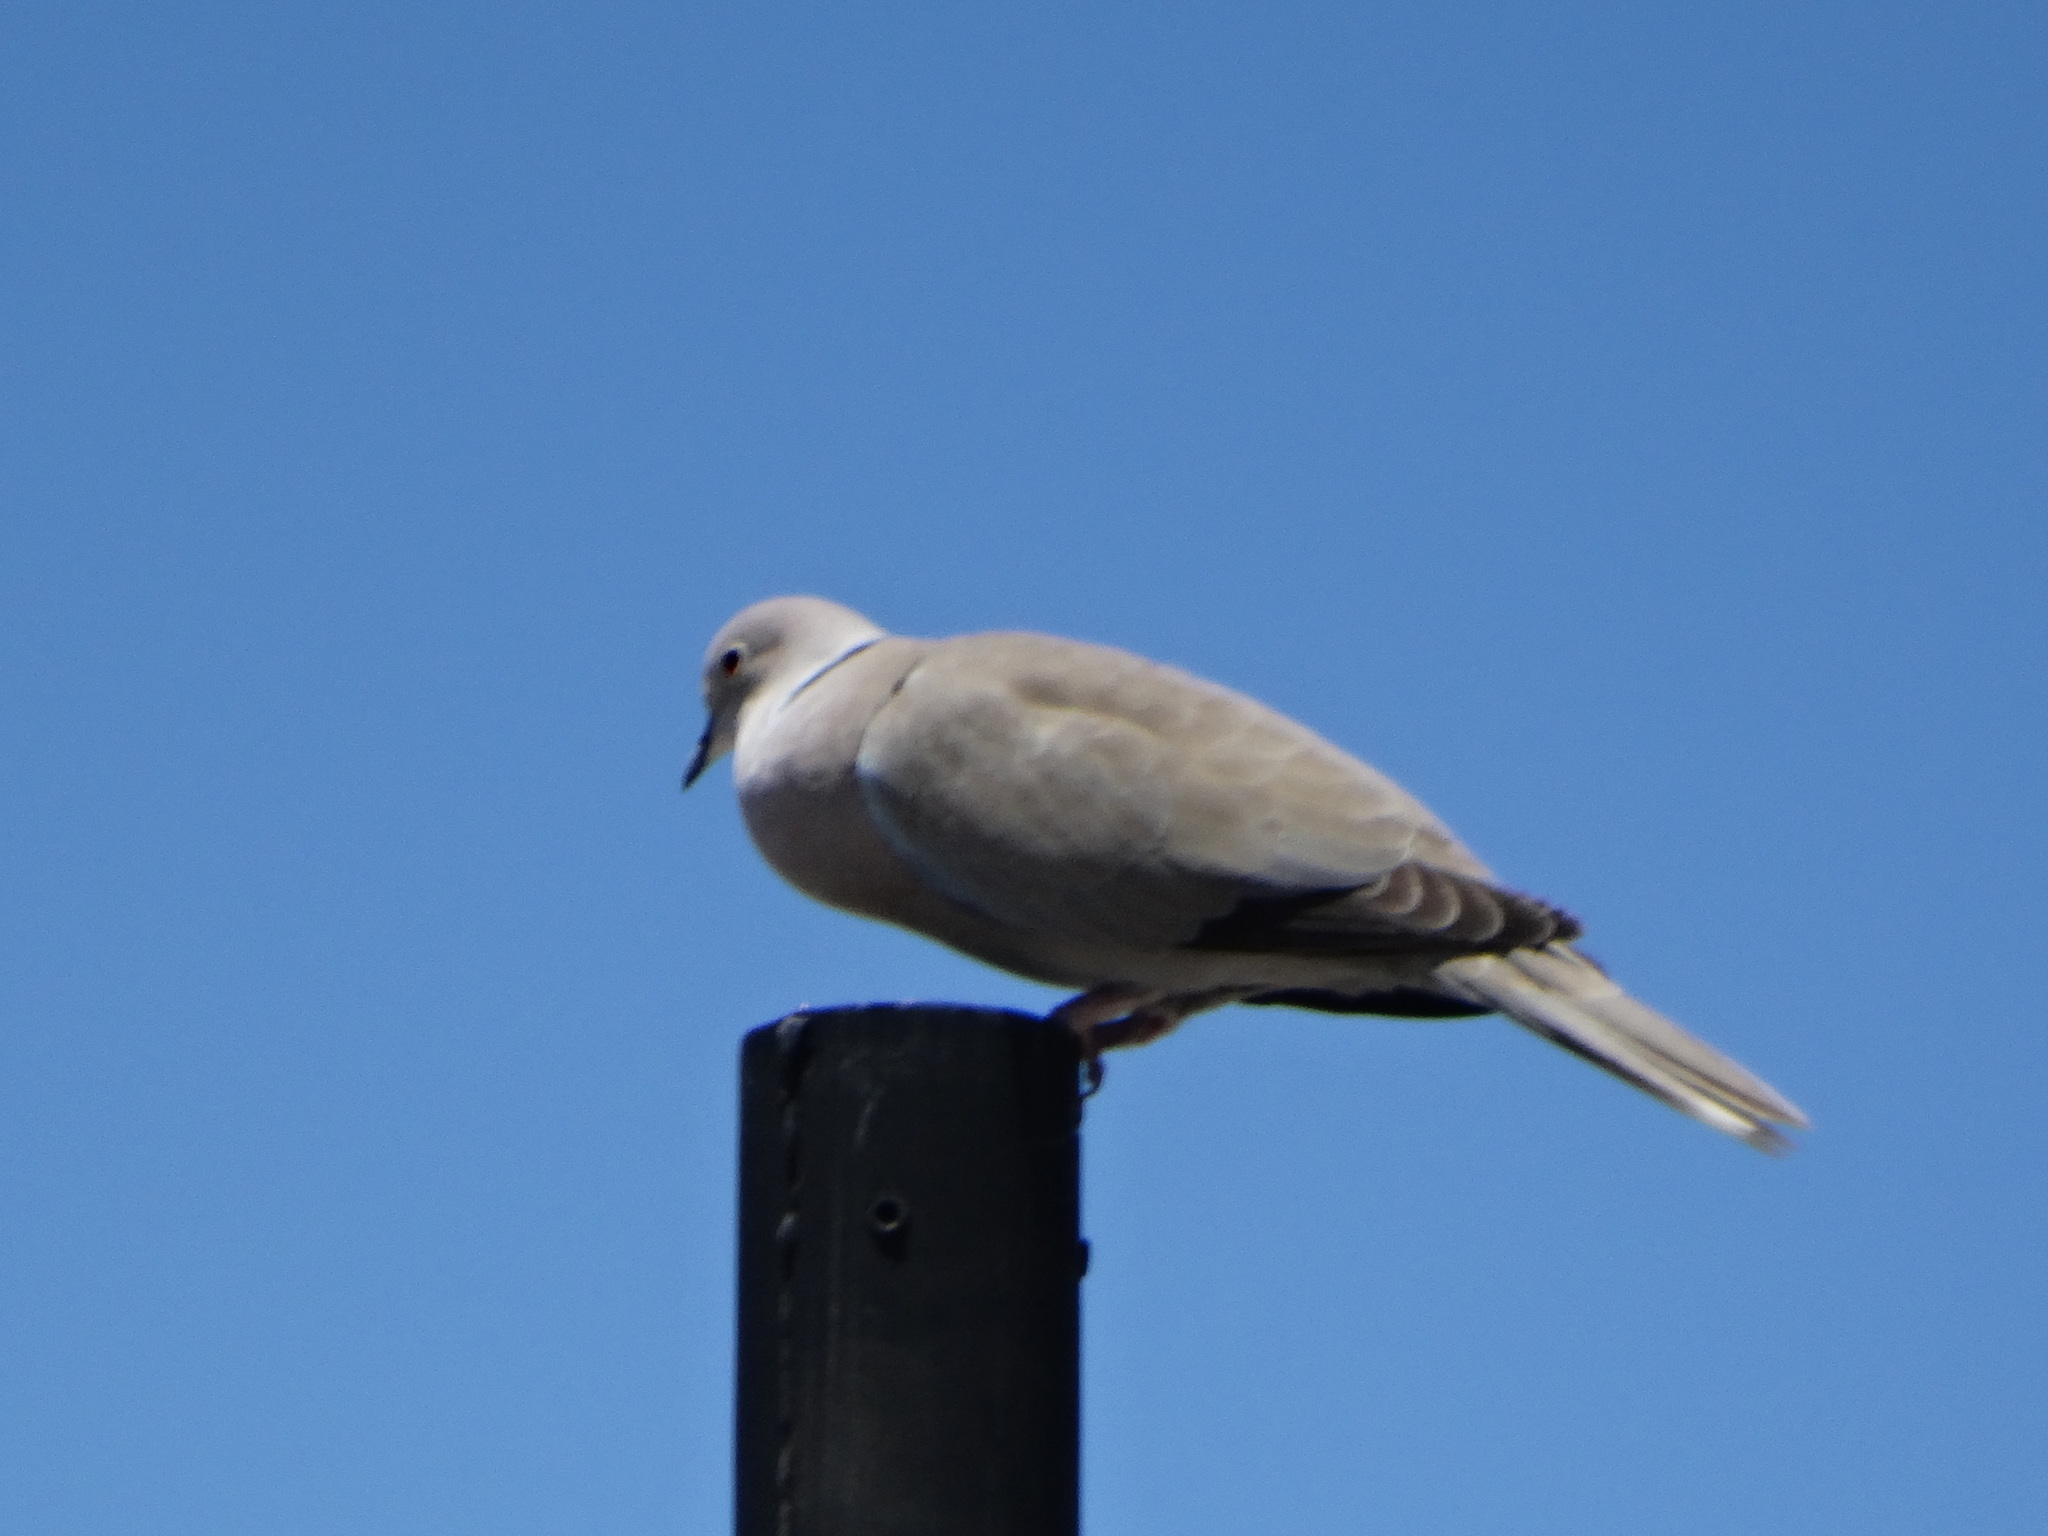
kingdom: Animalia
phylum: Chordata
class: Aves
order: Columbiformes
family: Columbidae
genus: Streptopelia
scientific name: Streptopelia decaocto
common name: Eurasian collared dove
